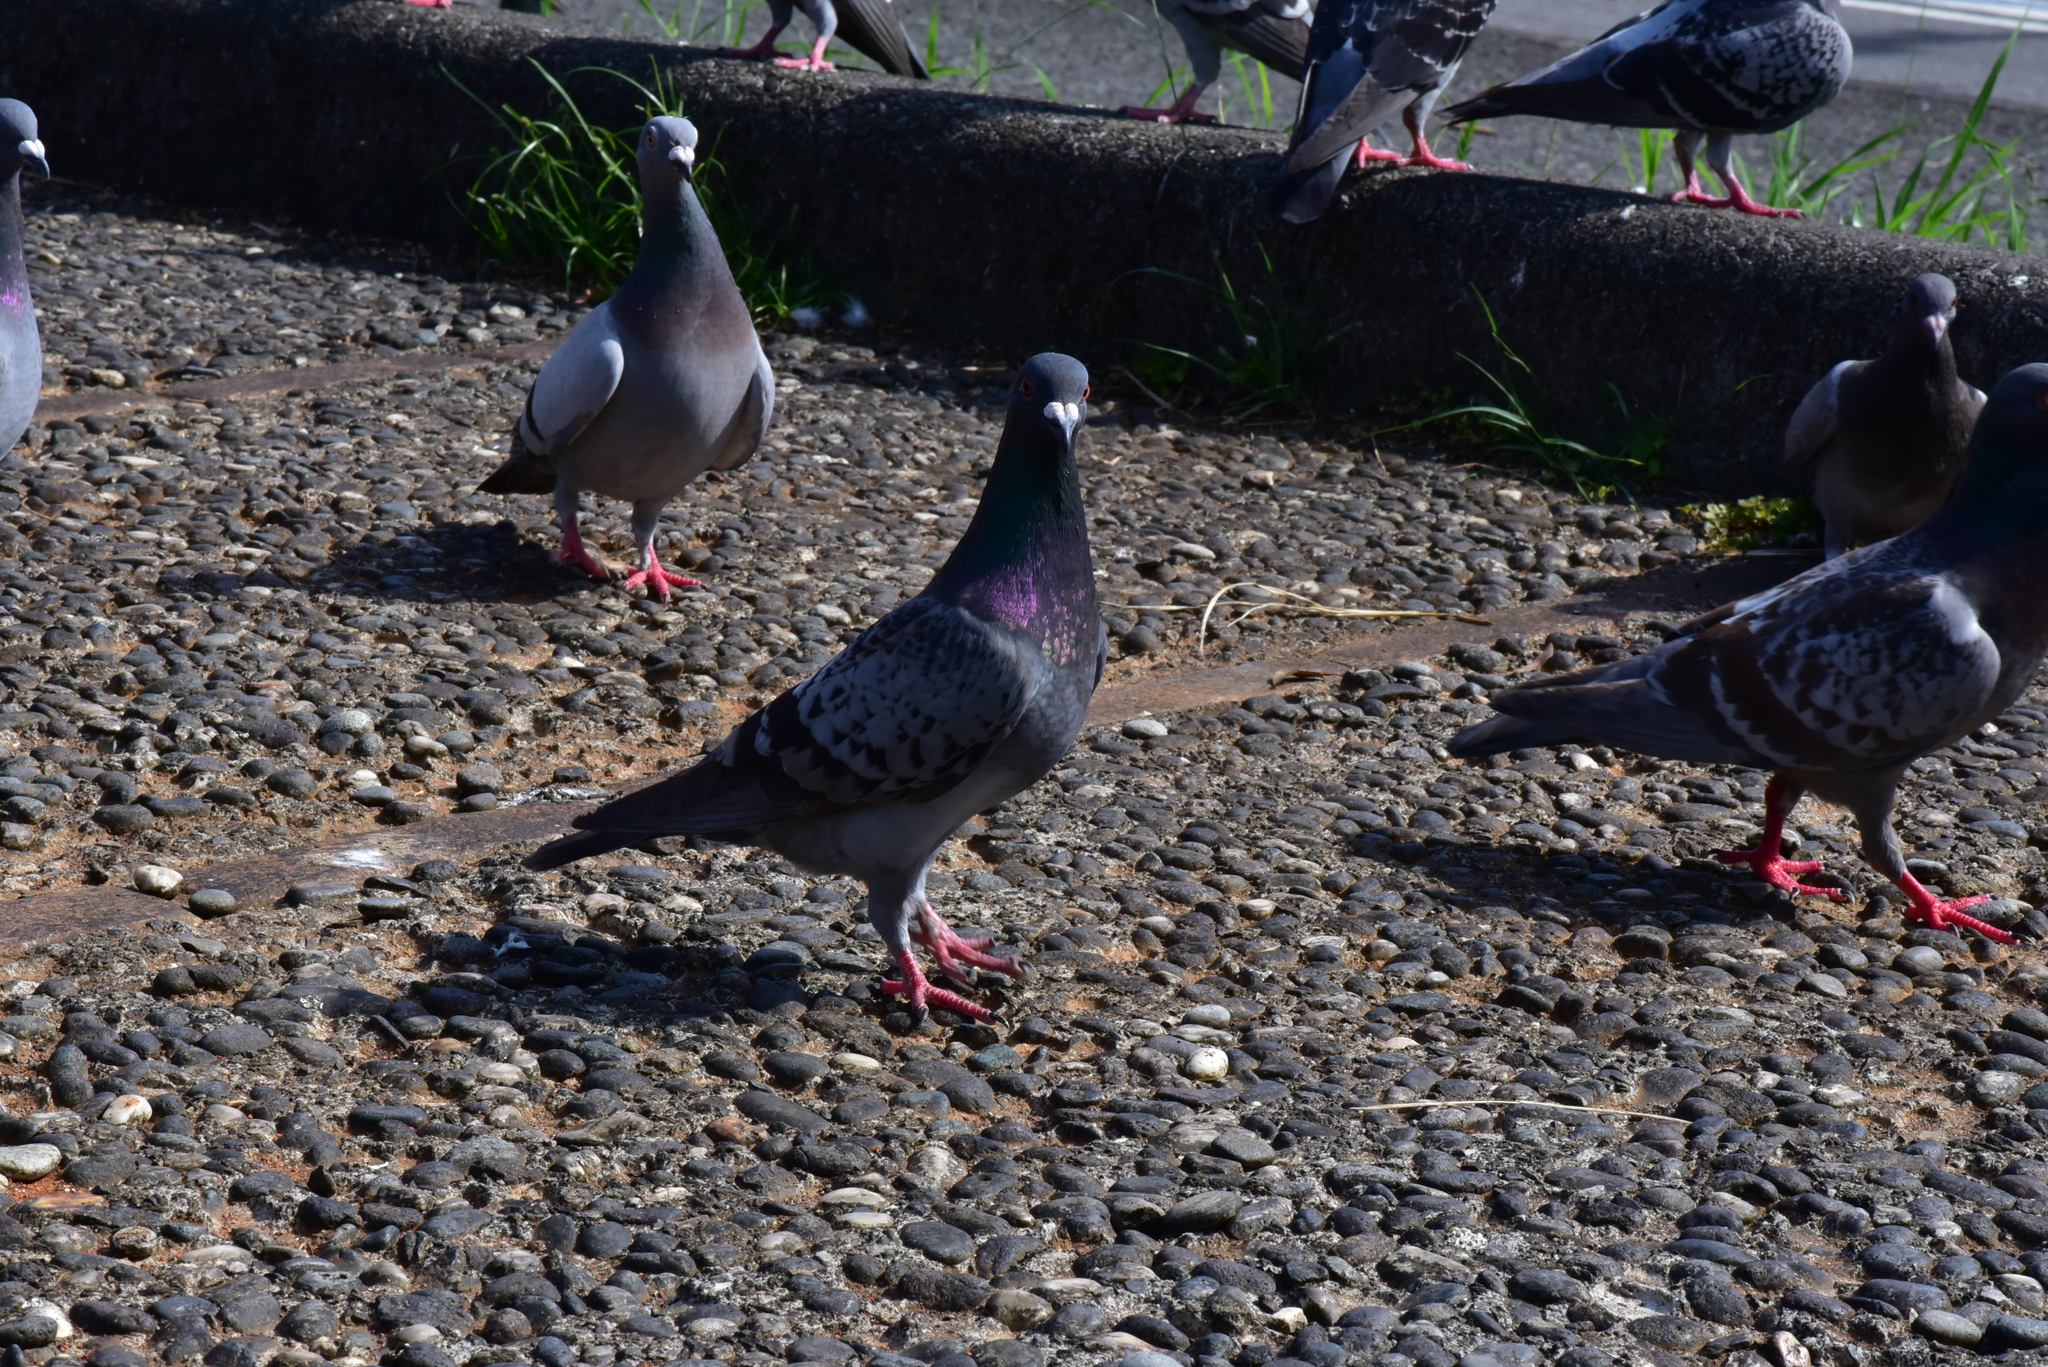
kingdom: Animalia
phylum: Chordata
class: Aves
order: Columbiformes
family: Columbidae
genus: Columba
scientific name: Columba livia
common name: Rock pigeon
